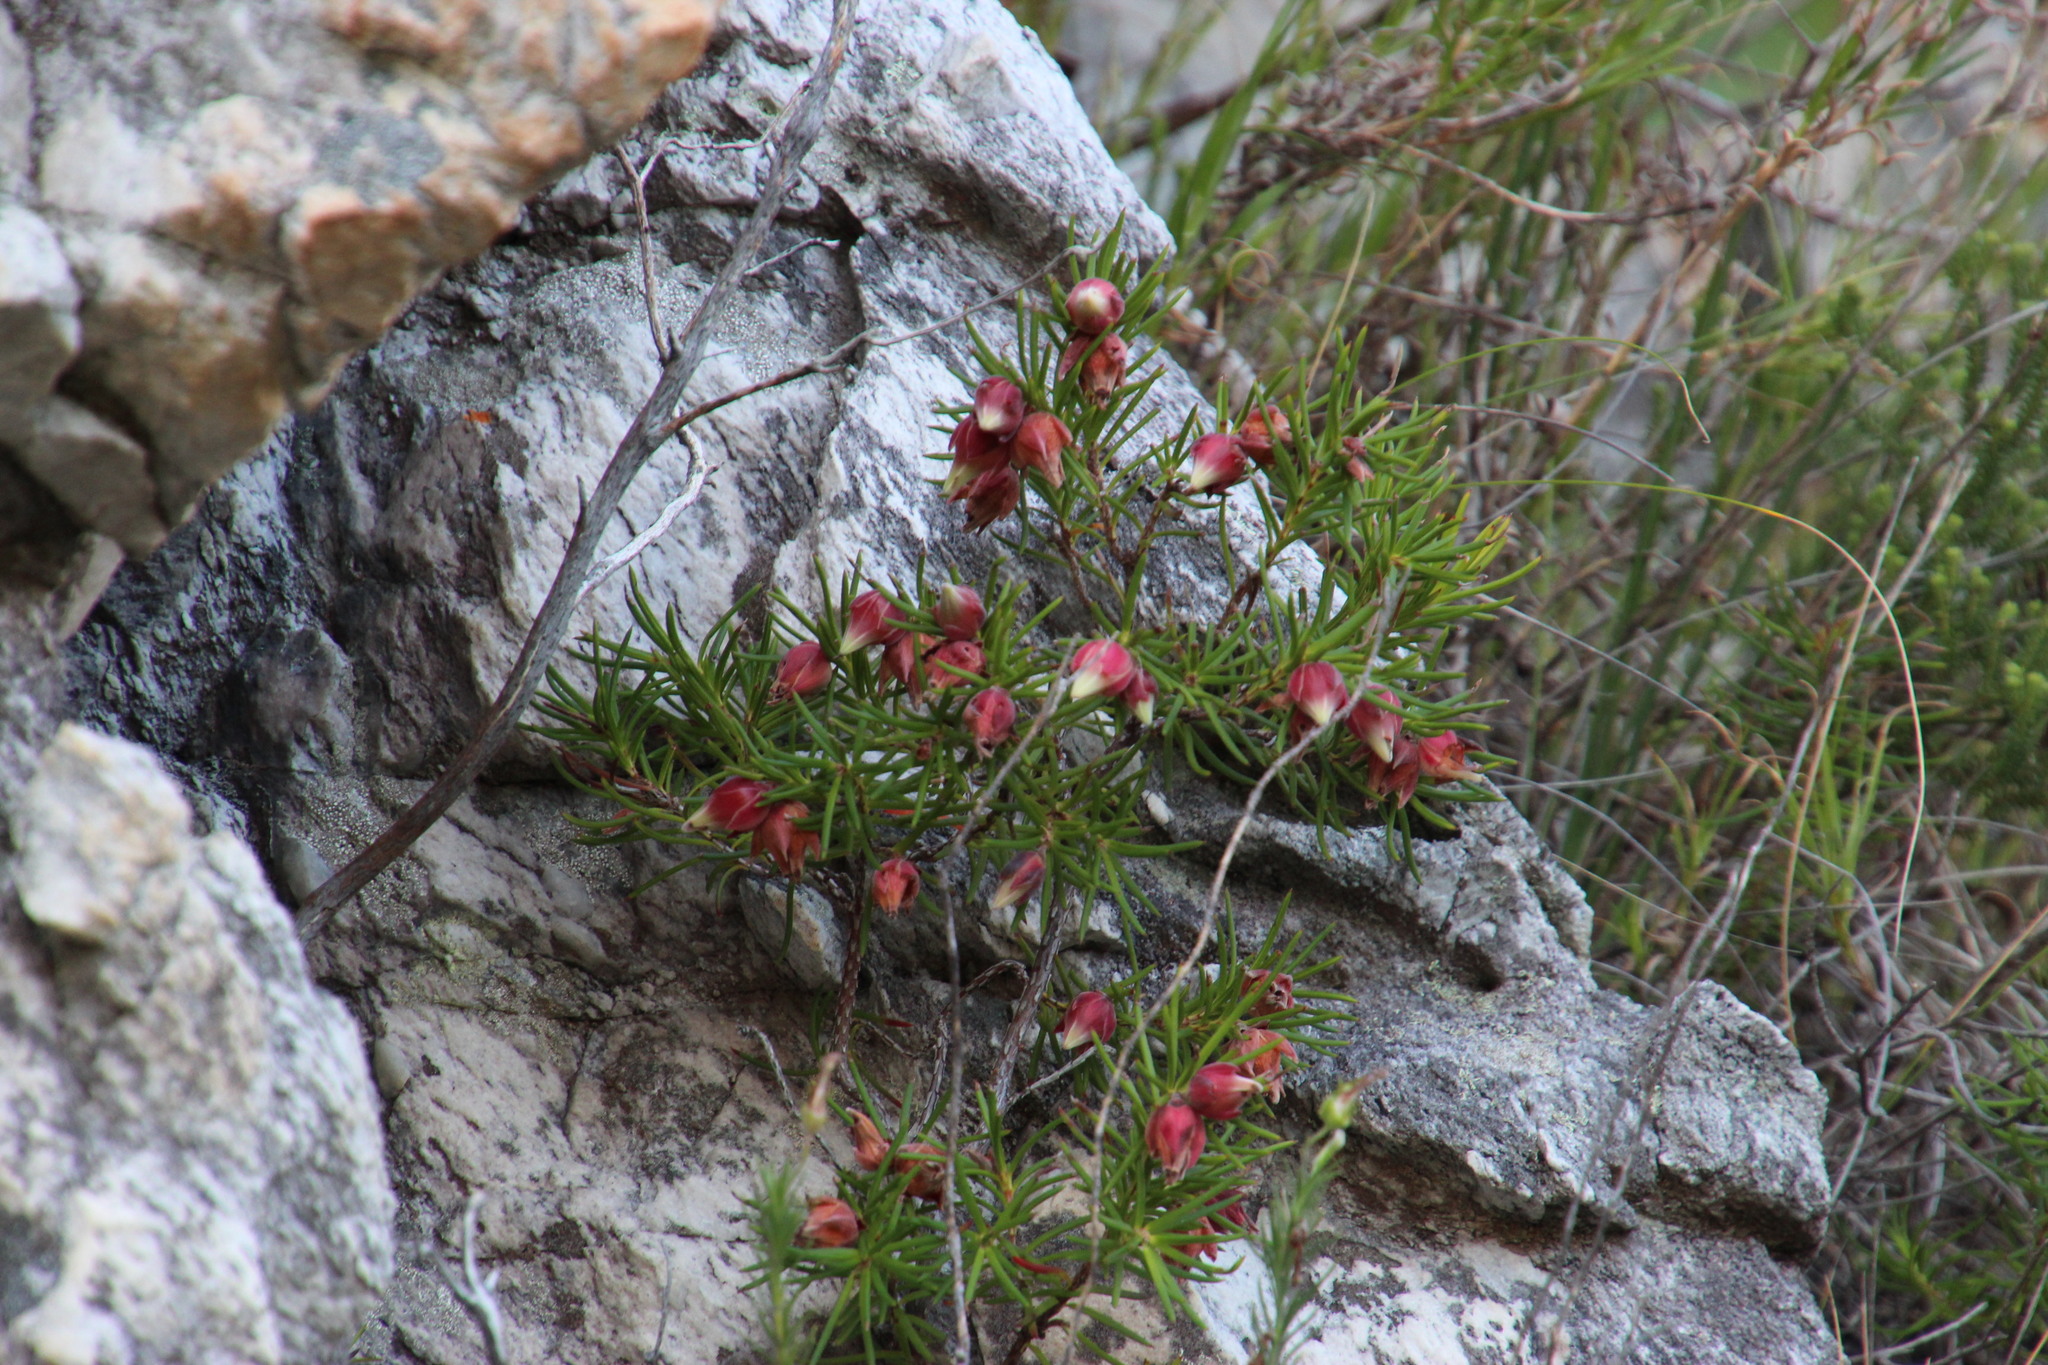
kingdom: Plantae
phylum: Tracheophyta
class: Magnoliopsida
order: Ericales
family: Ericaceae
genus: Erica
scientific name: Erica lanuginosa
